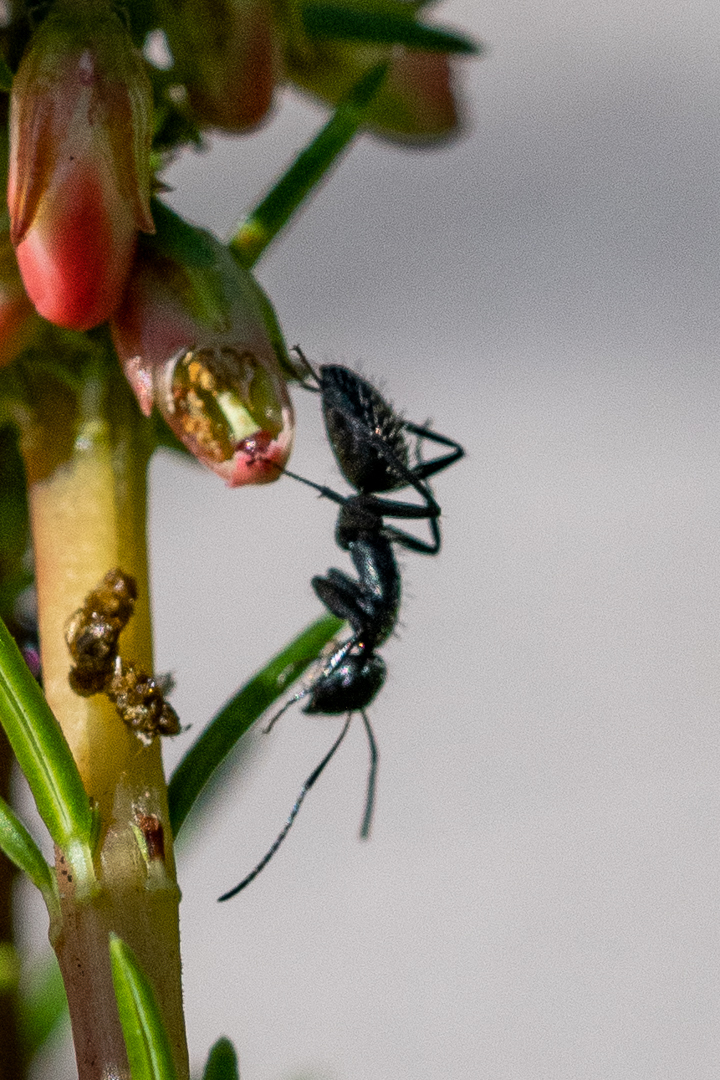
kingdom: Animalia
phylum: Arthropoda
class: Insecta
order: Hymenoptera
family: Formicidae
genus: Camponotus
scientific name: Camponotus niveosetosus
